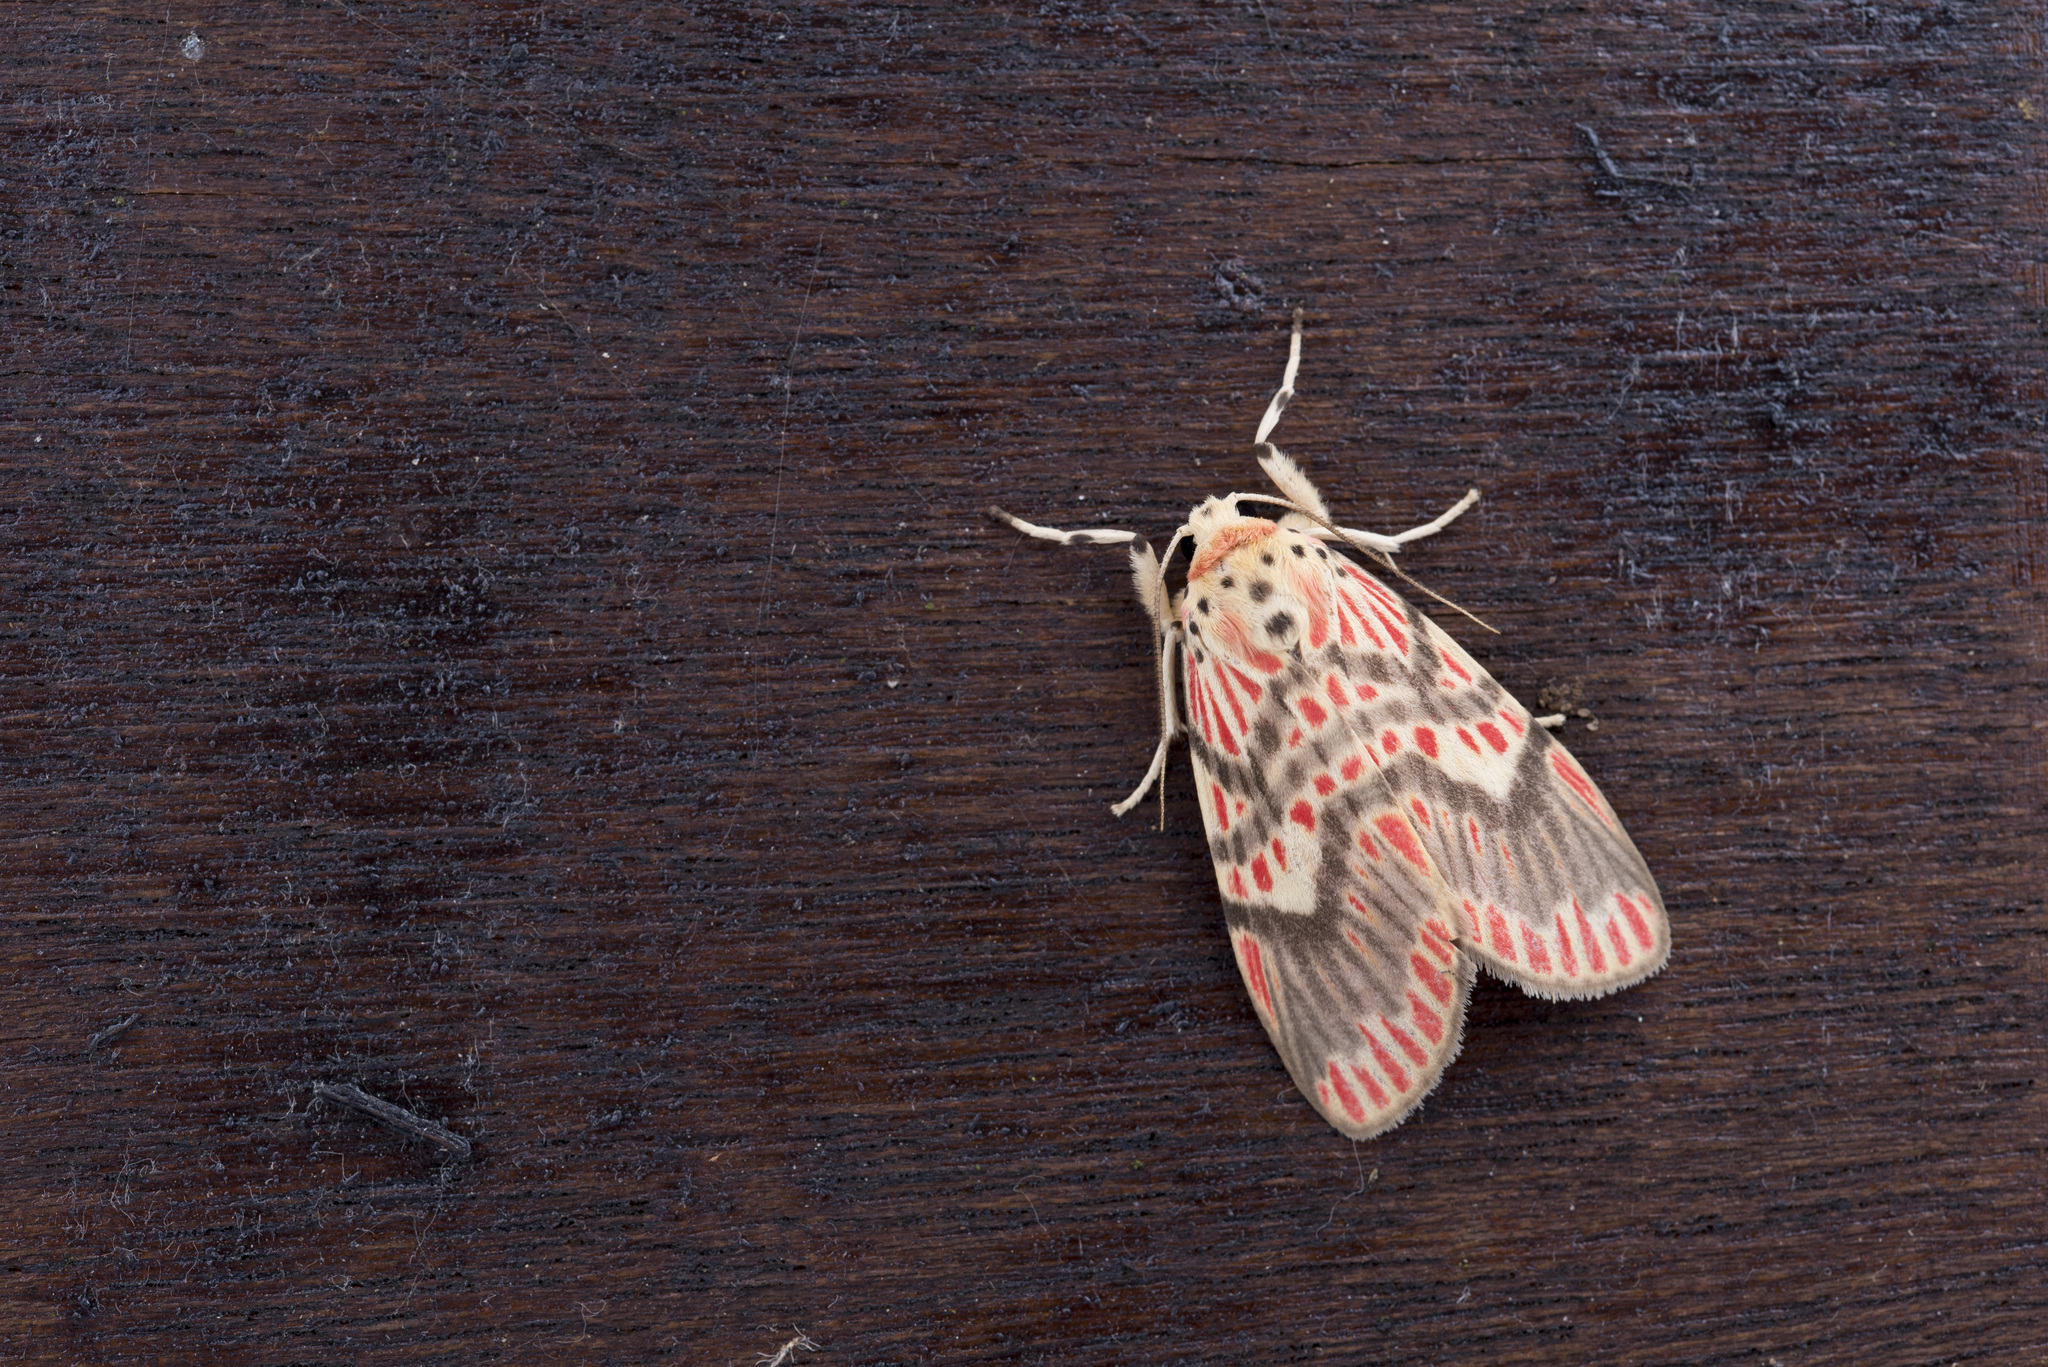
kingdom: Animalia
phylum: Arthropoda
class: Insecta
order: Lepidoptera
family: Erebidae
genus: Barsine
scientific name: Barsine fuscozonata
